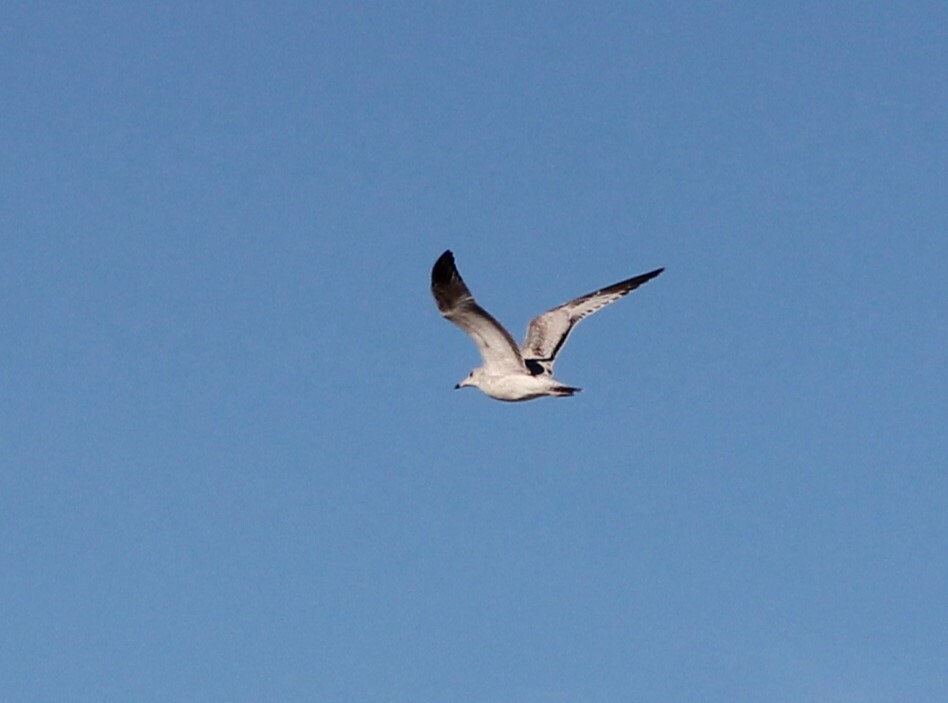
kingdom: Animalia
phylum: Chordata
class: Aves
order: Charadriiformes
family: Laridae
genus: Larus
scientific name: Larus delawarensis
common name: Ring-billed gull
